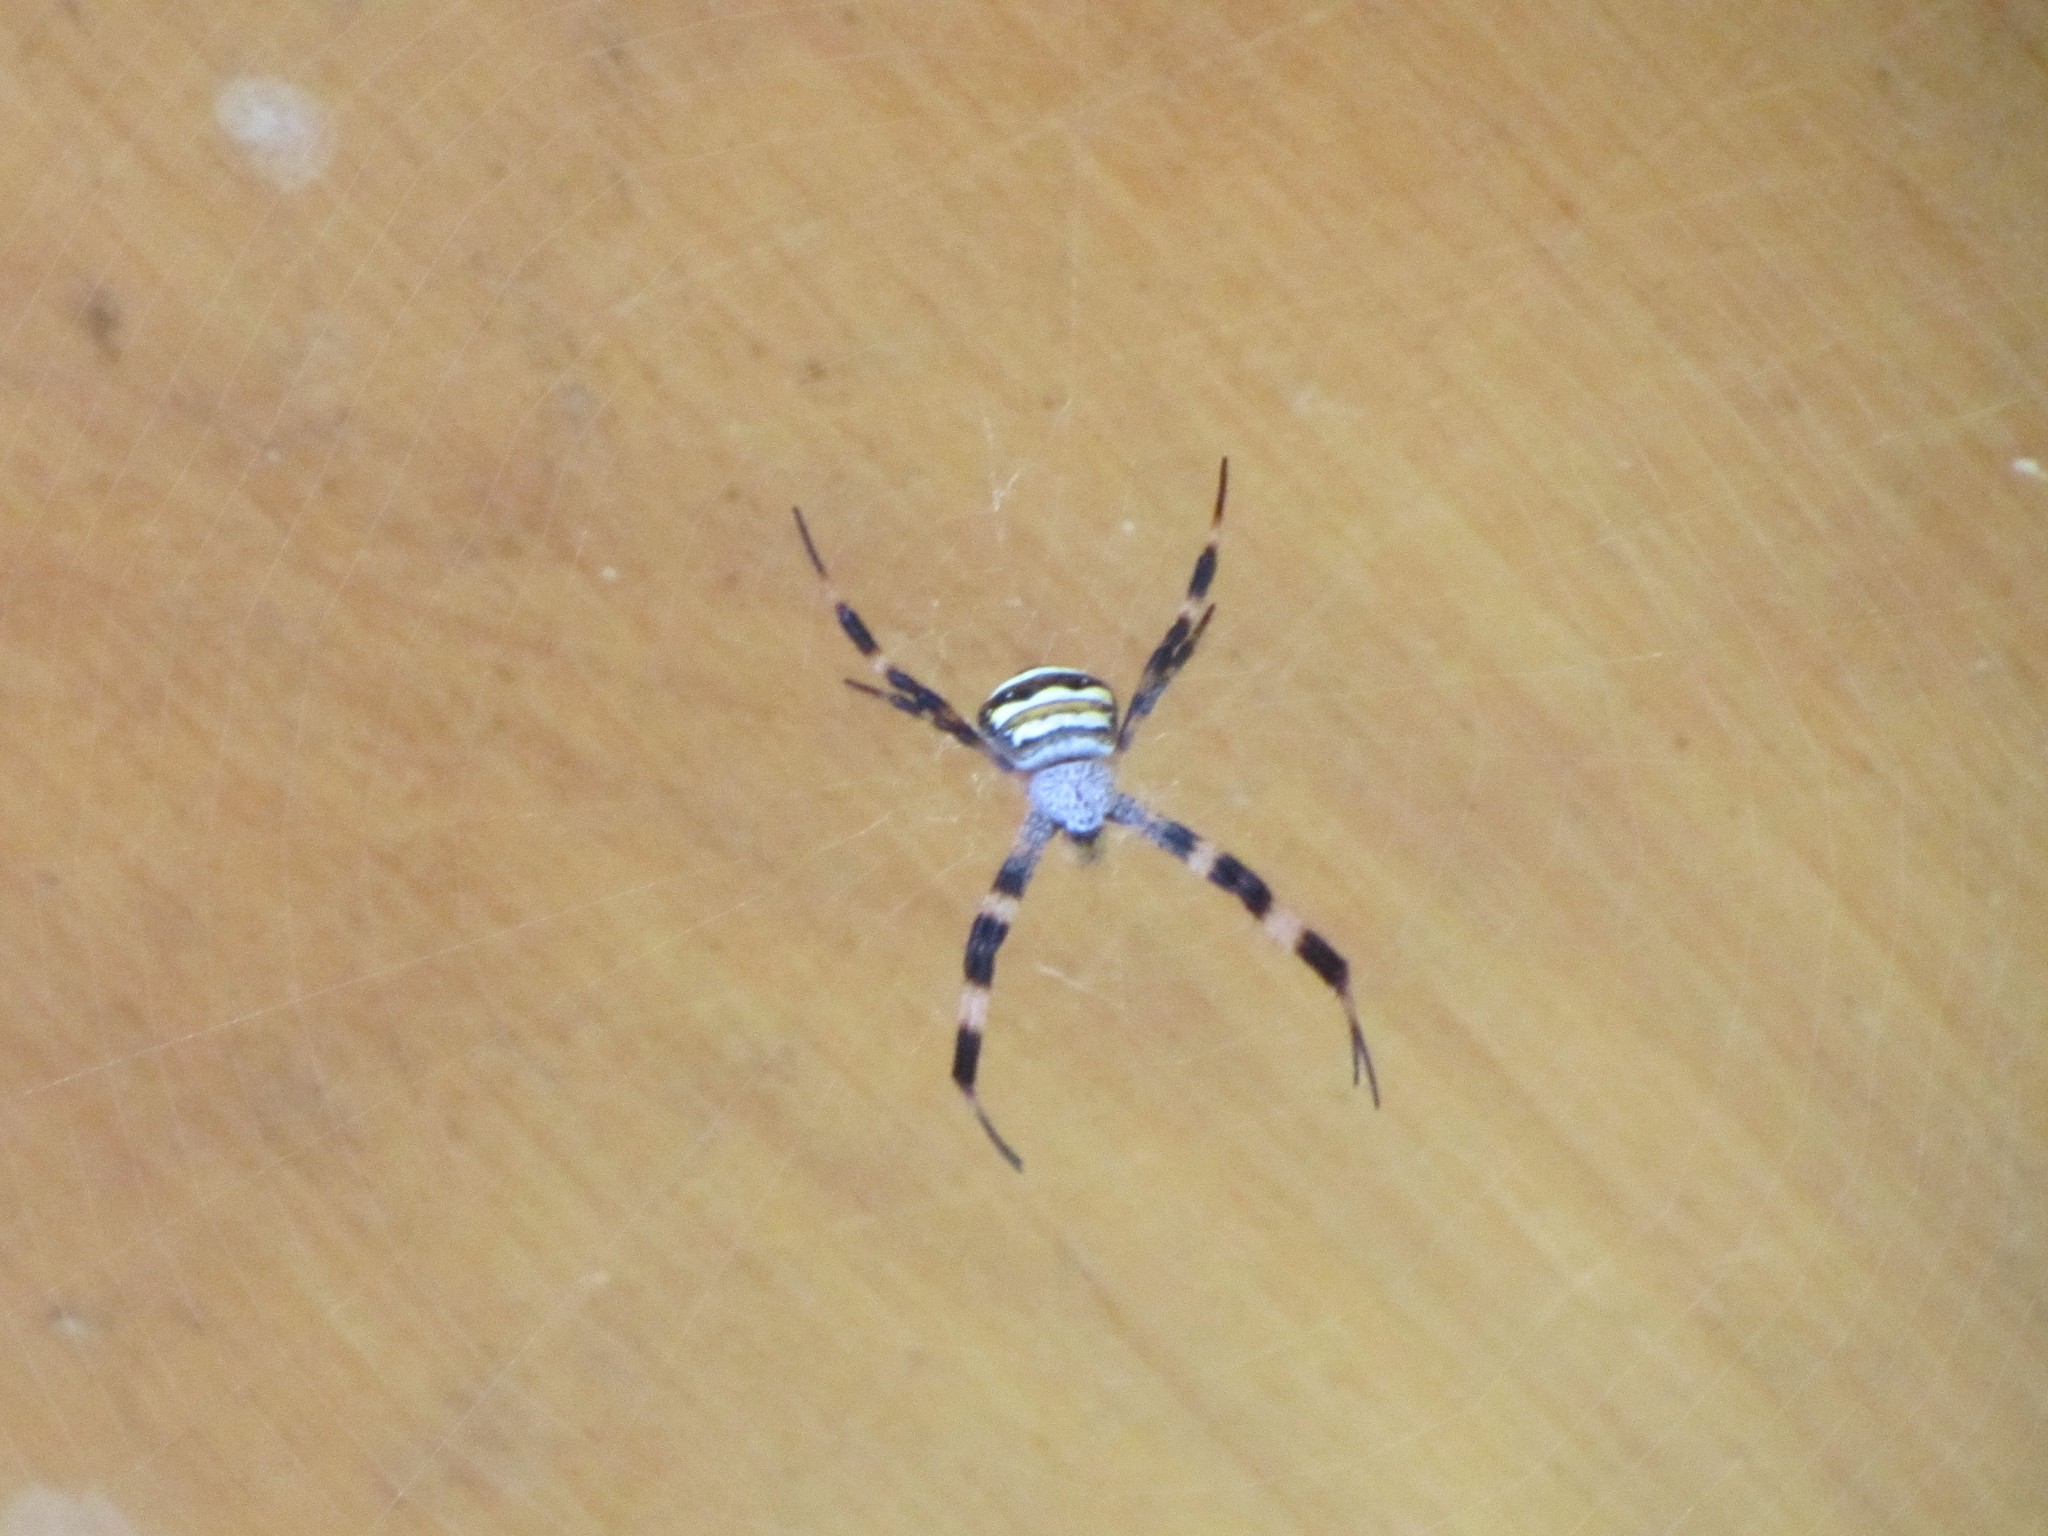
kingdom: Animalia
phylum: Arthropoda
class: Arachnida
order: Araneae
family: Araneidae
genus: Argiope
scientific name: Argiope aetherea
